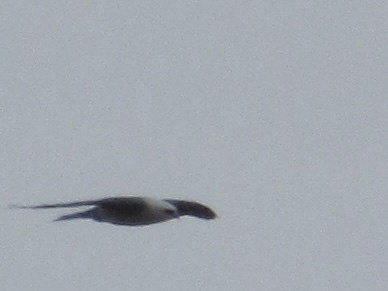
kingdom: Animalia
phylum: Chordata
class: Aves
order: Accipitriformes
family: Accipitridae
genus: Ictinia
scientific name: Ictinia mississippiensis
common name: Mississippi kite
